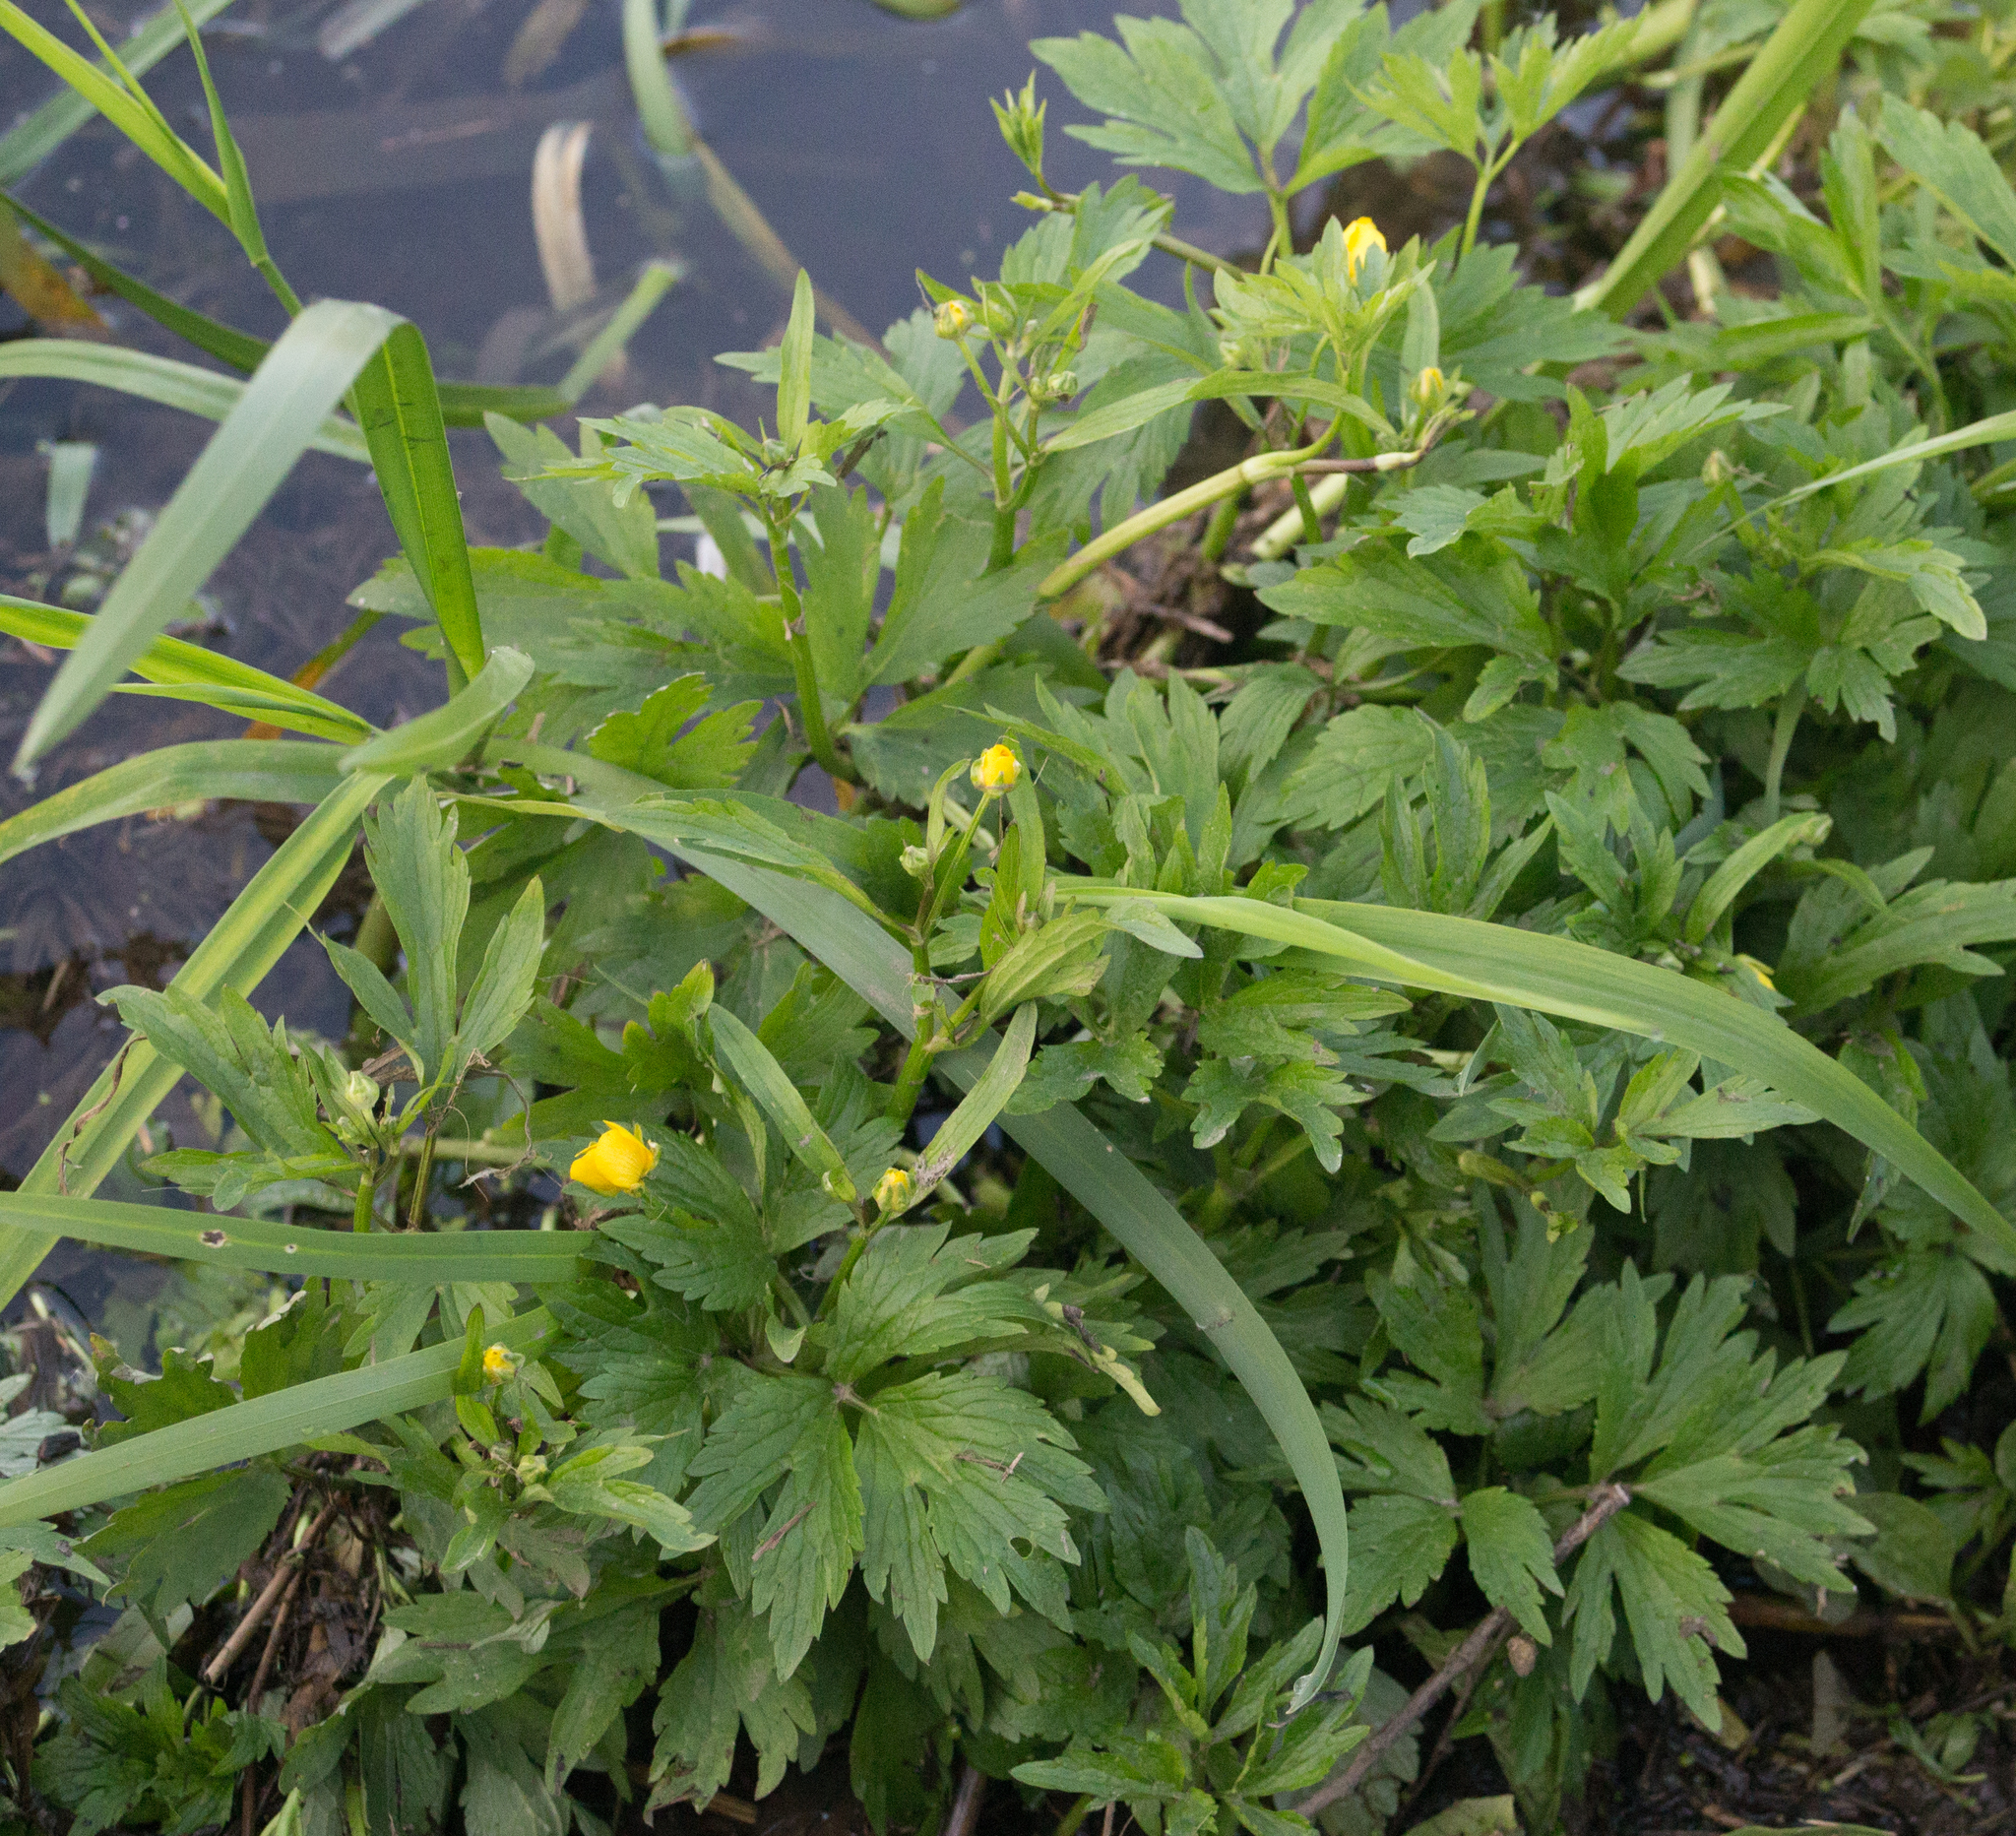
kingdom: Plantae
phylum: Tracheophyta
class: Magnoliopsida
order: Ranunculales
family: Ranunculaceae
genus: Ranunculus
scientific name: Ranunculus repens
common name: Creeping buttercup
